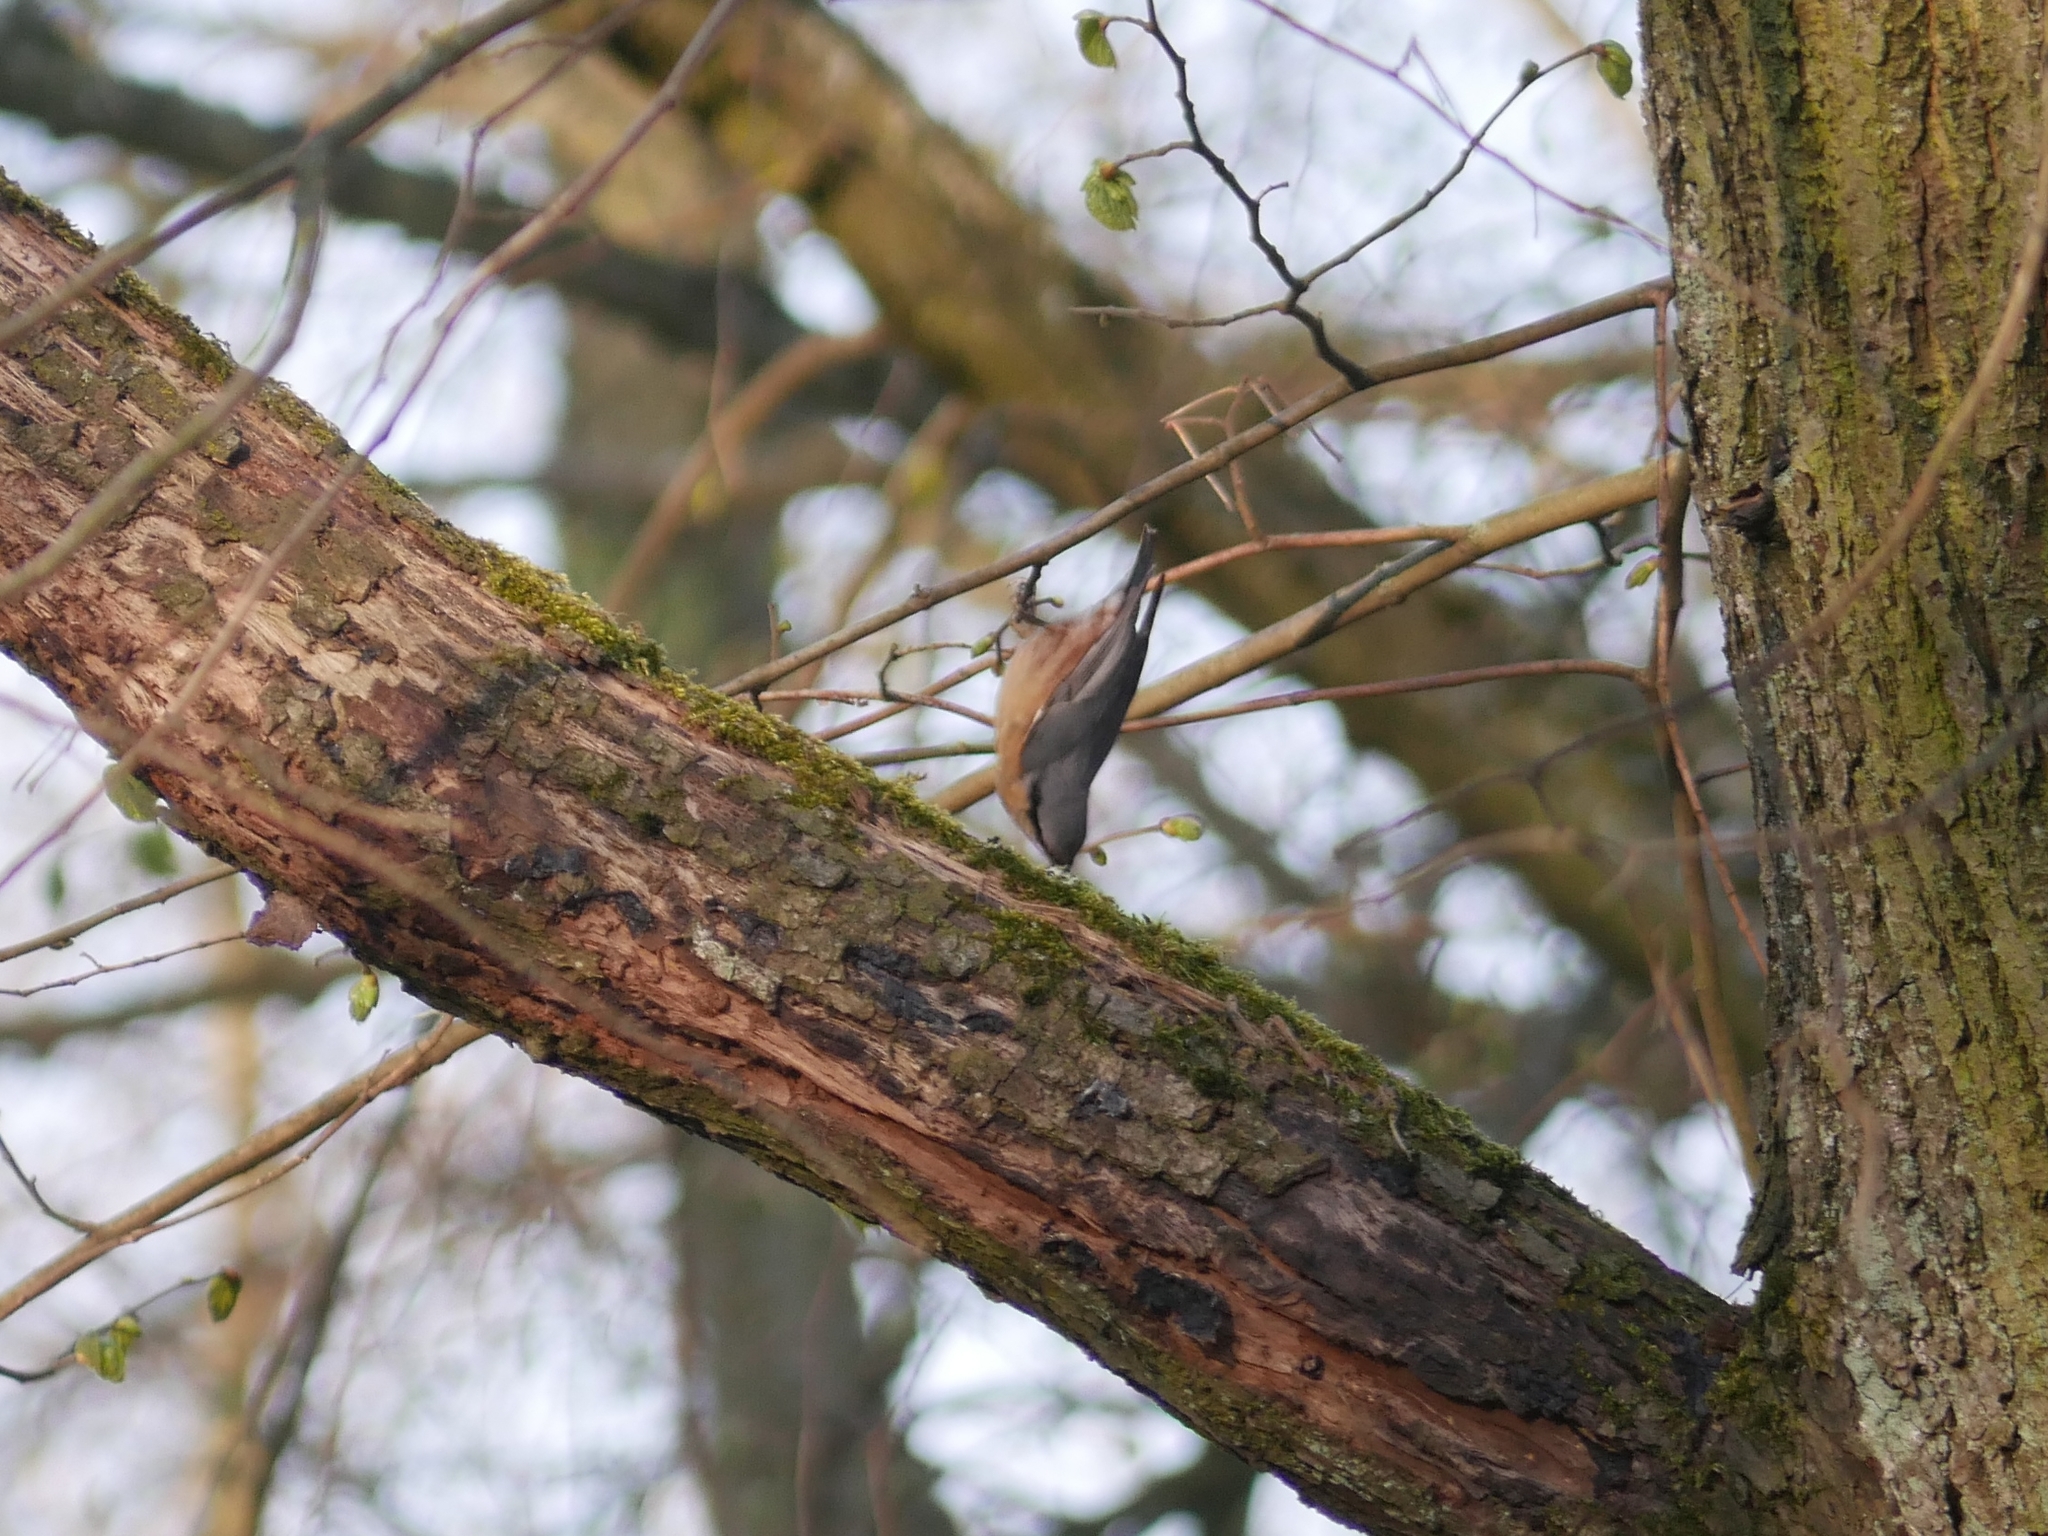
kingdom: Animalia
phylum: Chordata
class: Aves
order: Passeriformes
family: Sittidae
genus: Sitta
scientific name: Sitta europaea
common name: Eurasian nuthatch
